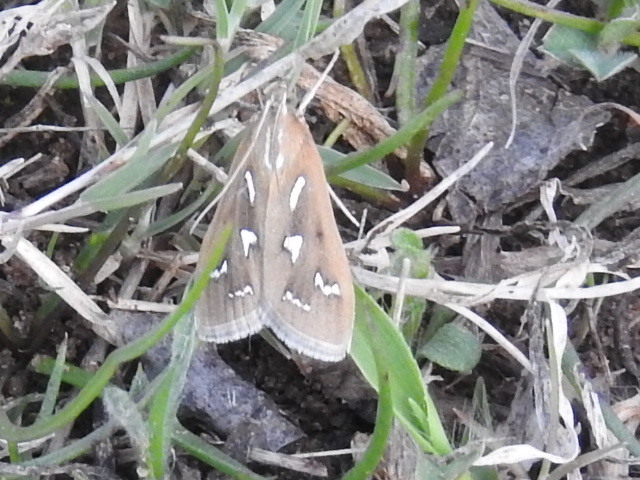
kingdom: Animalia
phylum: Arthropoda
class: Insecta
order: Lepidoptera
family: Crambidae
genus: Diastictis
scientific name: Diastictis fracturalis
